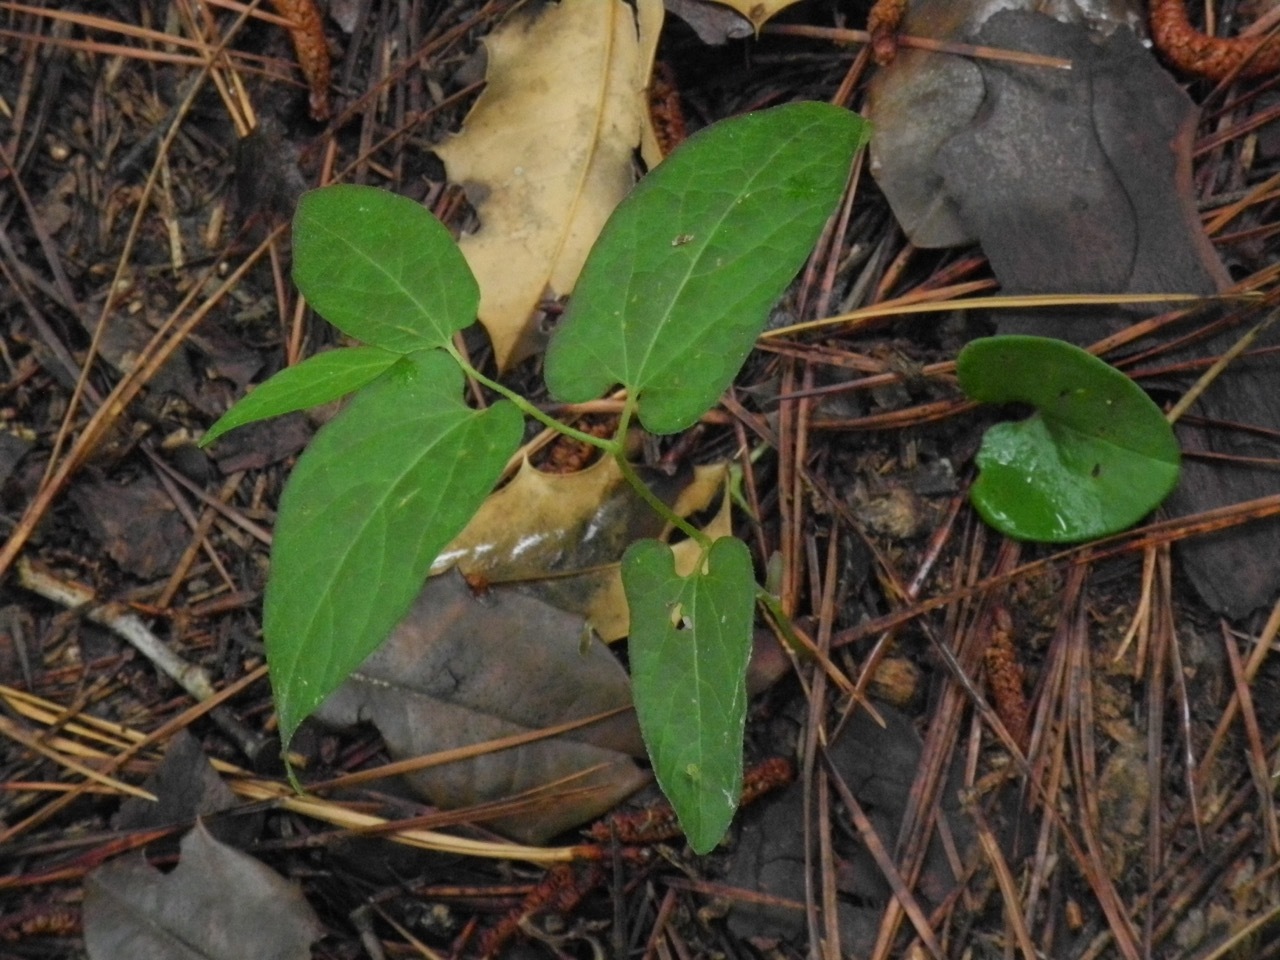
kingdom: Plantae
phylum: Tracheophyta
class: Magnoliopsida
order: Piperales
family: Aristolochiaceae
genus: Endodeca
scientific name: Endodeca serpentaria
